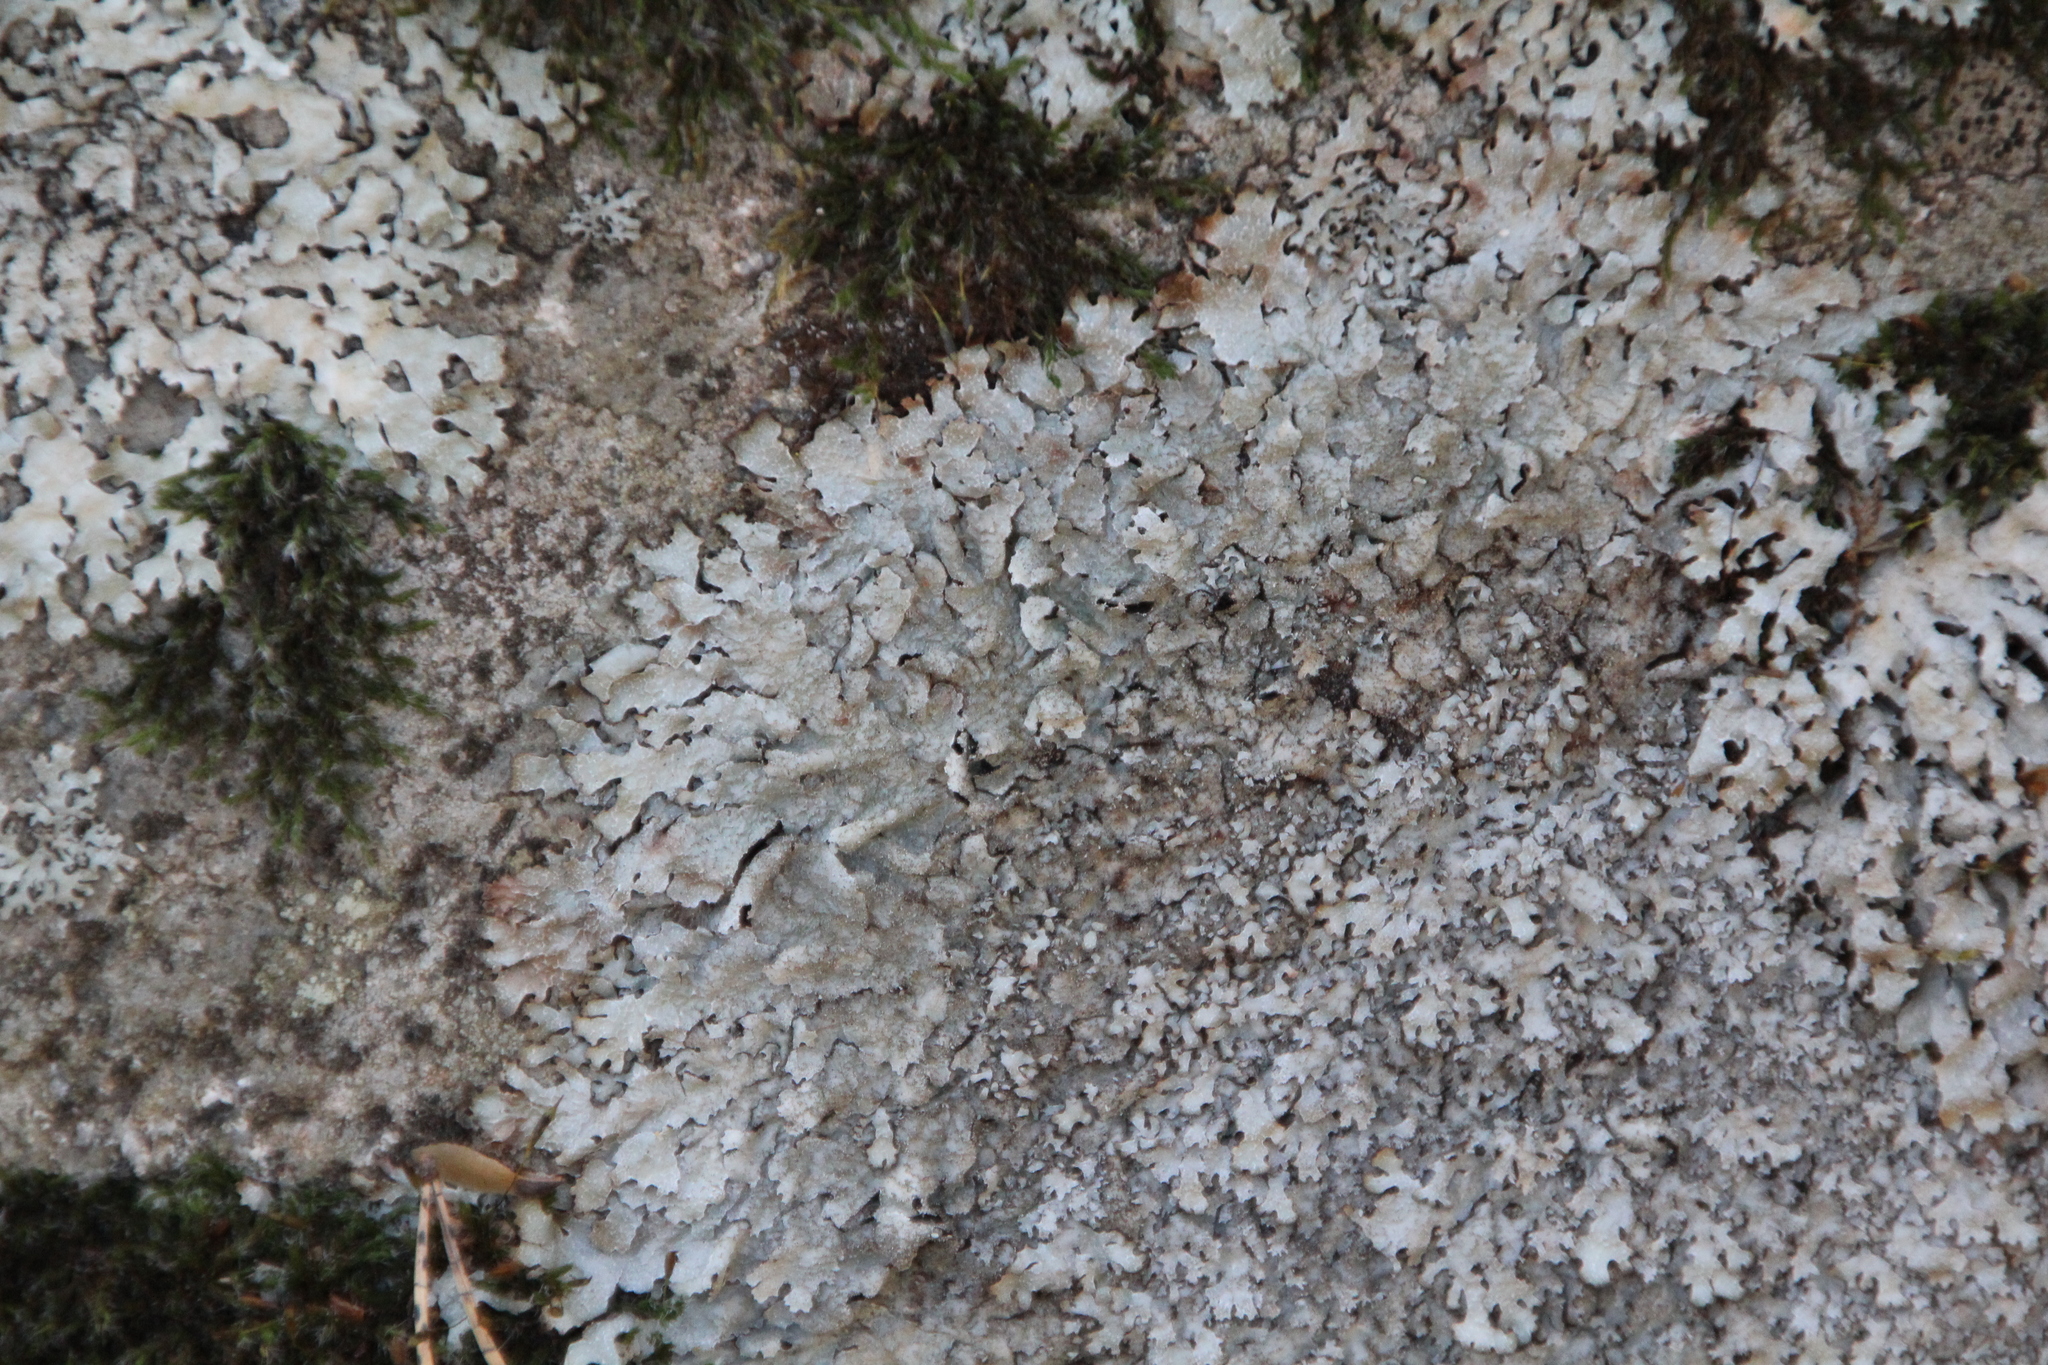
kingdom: Fungi
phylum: Ascomycota
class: Lecanoromycetes
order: Lecanorales
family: Parmeliaceae
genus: Parmelia
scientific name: Parmelia saxatilis
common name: Salted shield lichen
